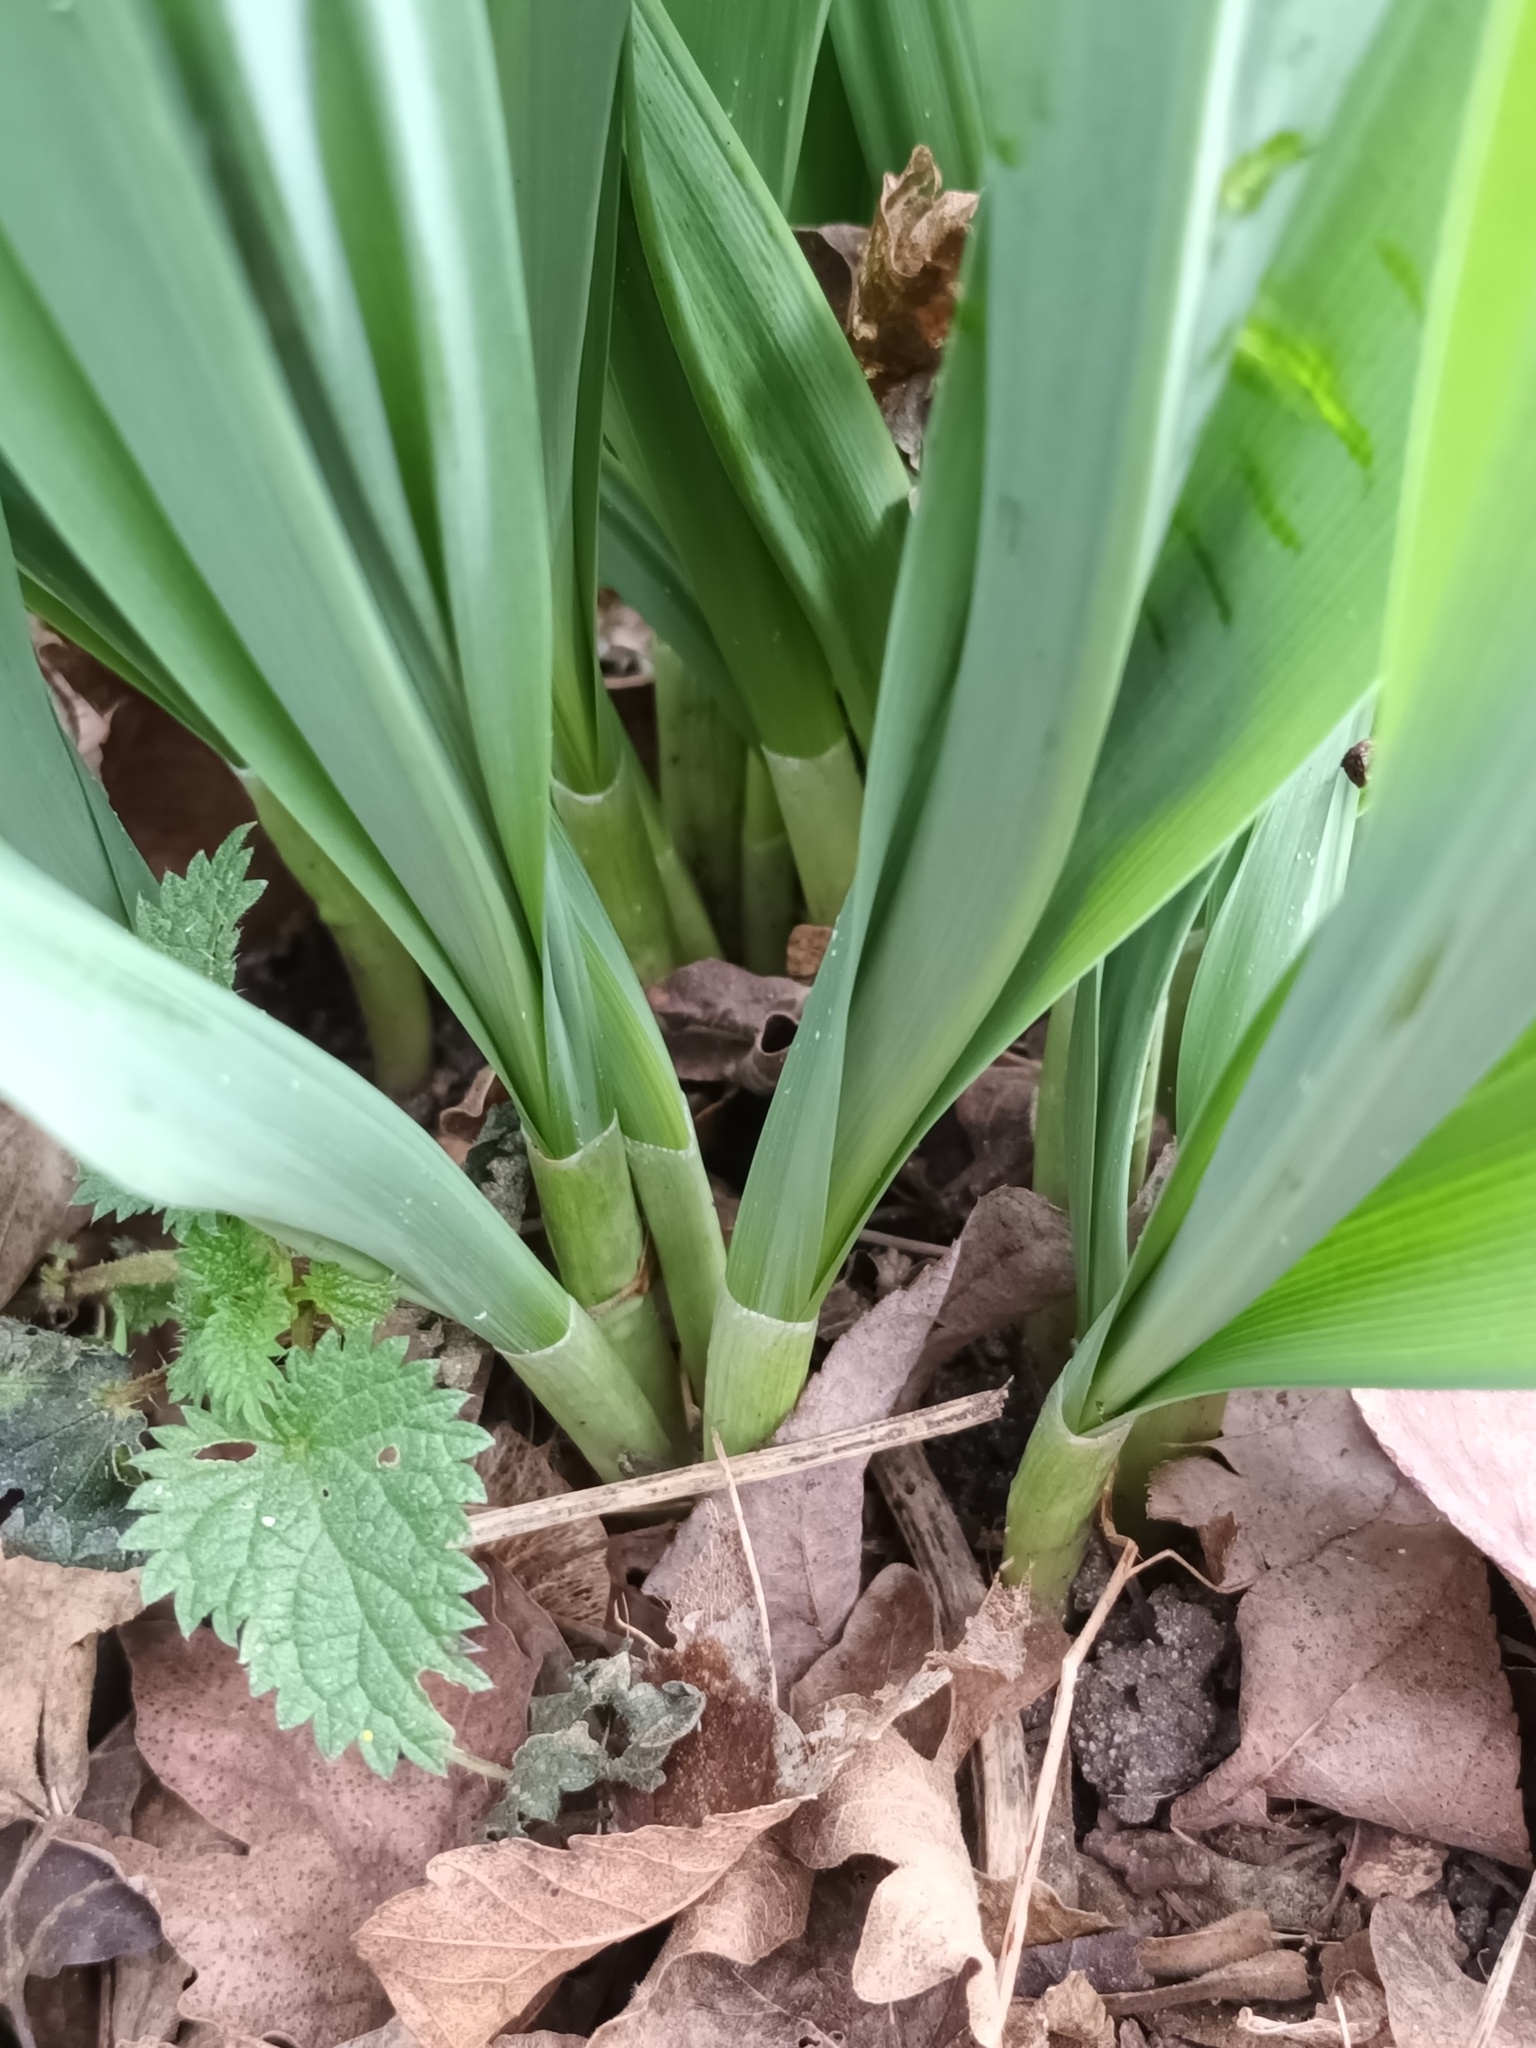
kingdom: Plantae
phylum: Tracheophyta
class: Liliopsida
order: Asparagales
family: Amaryllidaceae
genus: Galanthus
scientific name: Galanthus elwesii
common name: Greater snowdrop
